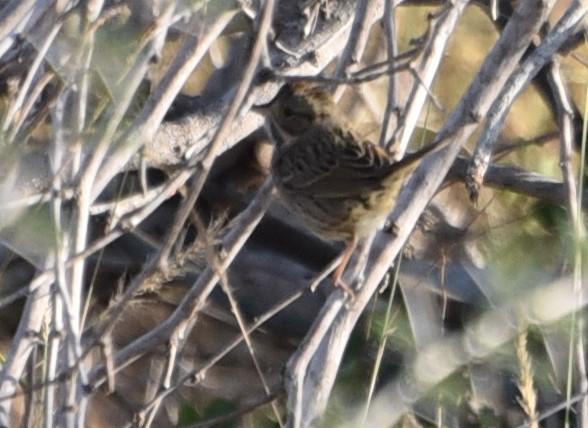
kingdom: Animalia
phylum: Chordata
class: Aves
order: Passeriformes
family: Passerellidae
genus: Melospiza
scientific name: Melospiza lincolnii
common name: Lincoln's sparrow
